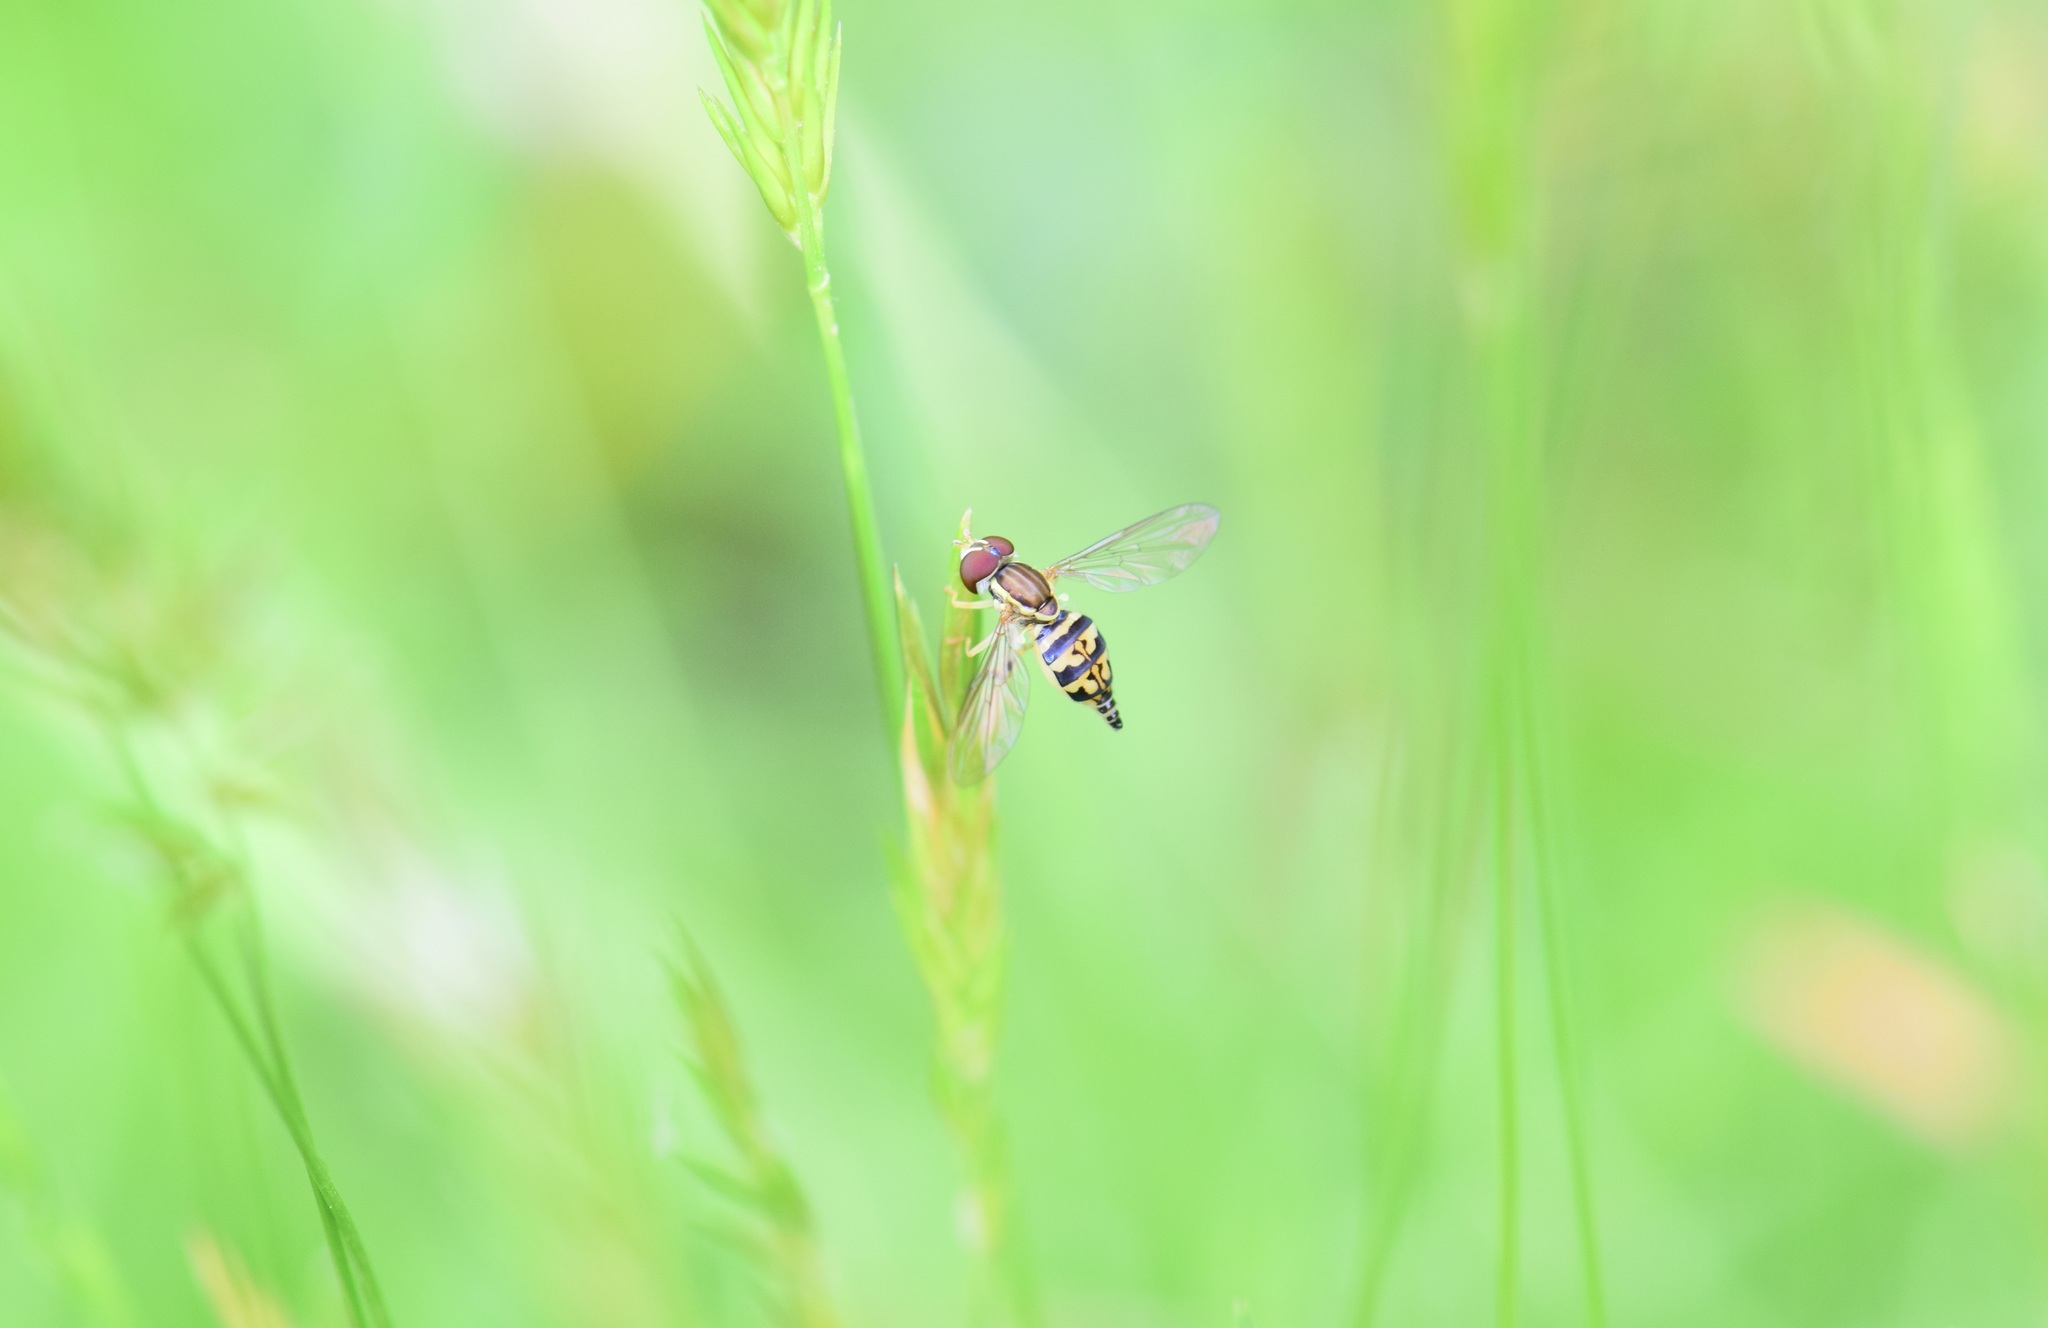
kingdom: Animalia
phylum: Arthropoda
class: Insecta
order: Diptera
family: Syrphidae
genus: Toxomerus
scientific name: Toxomerus geminatus
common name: Eastern calligrapher
